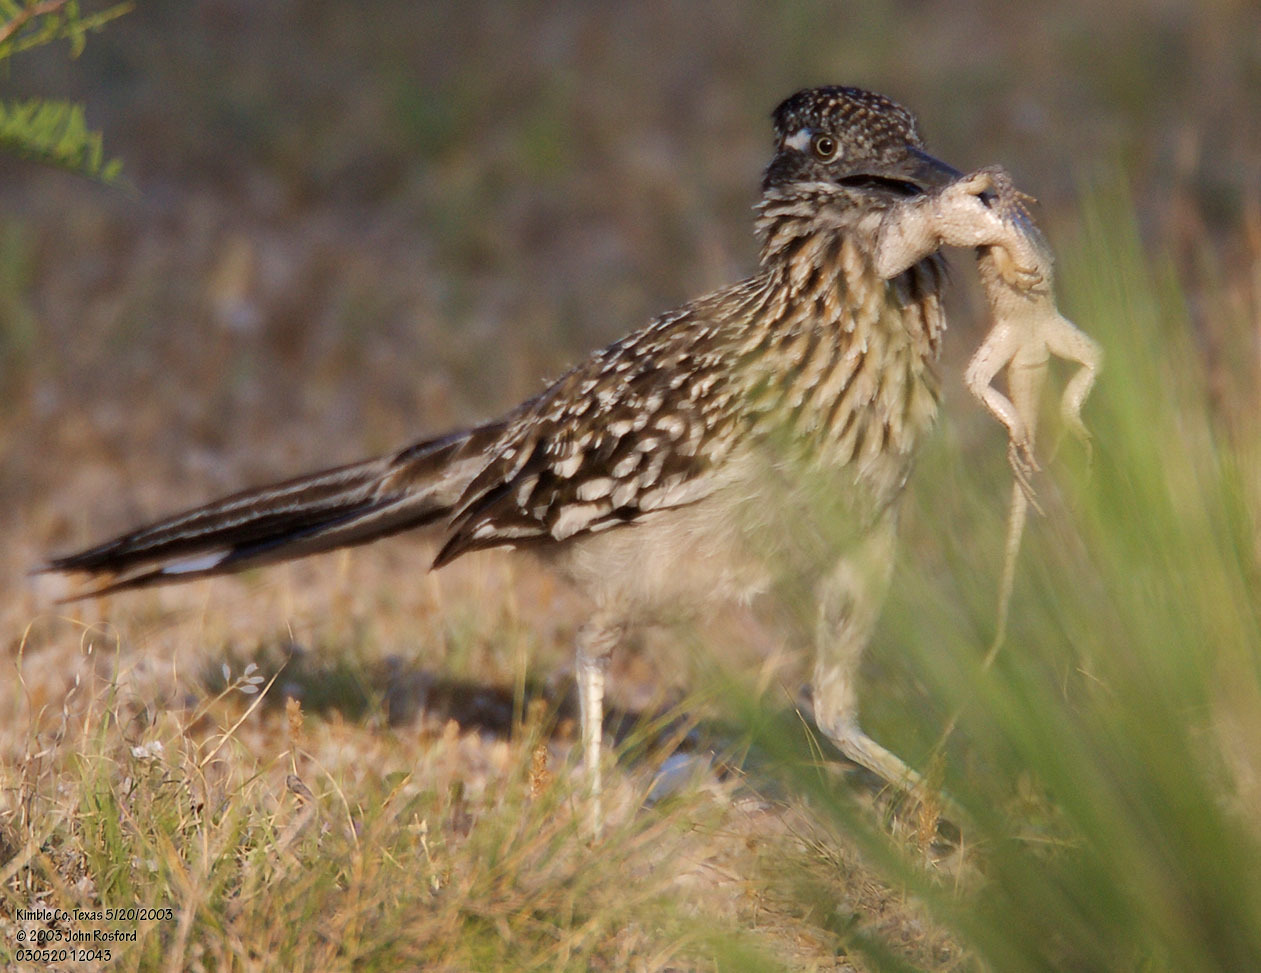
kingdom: Animalia
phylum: Chordata
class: Aves
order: Cuculiformes
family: Cuculidae
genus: Geococcyx
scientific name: Geococcyx californianus
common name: Greater roadrunner
